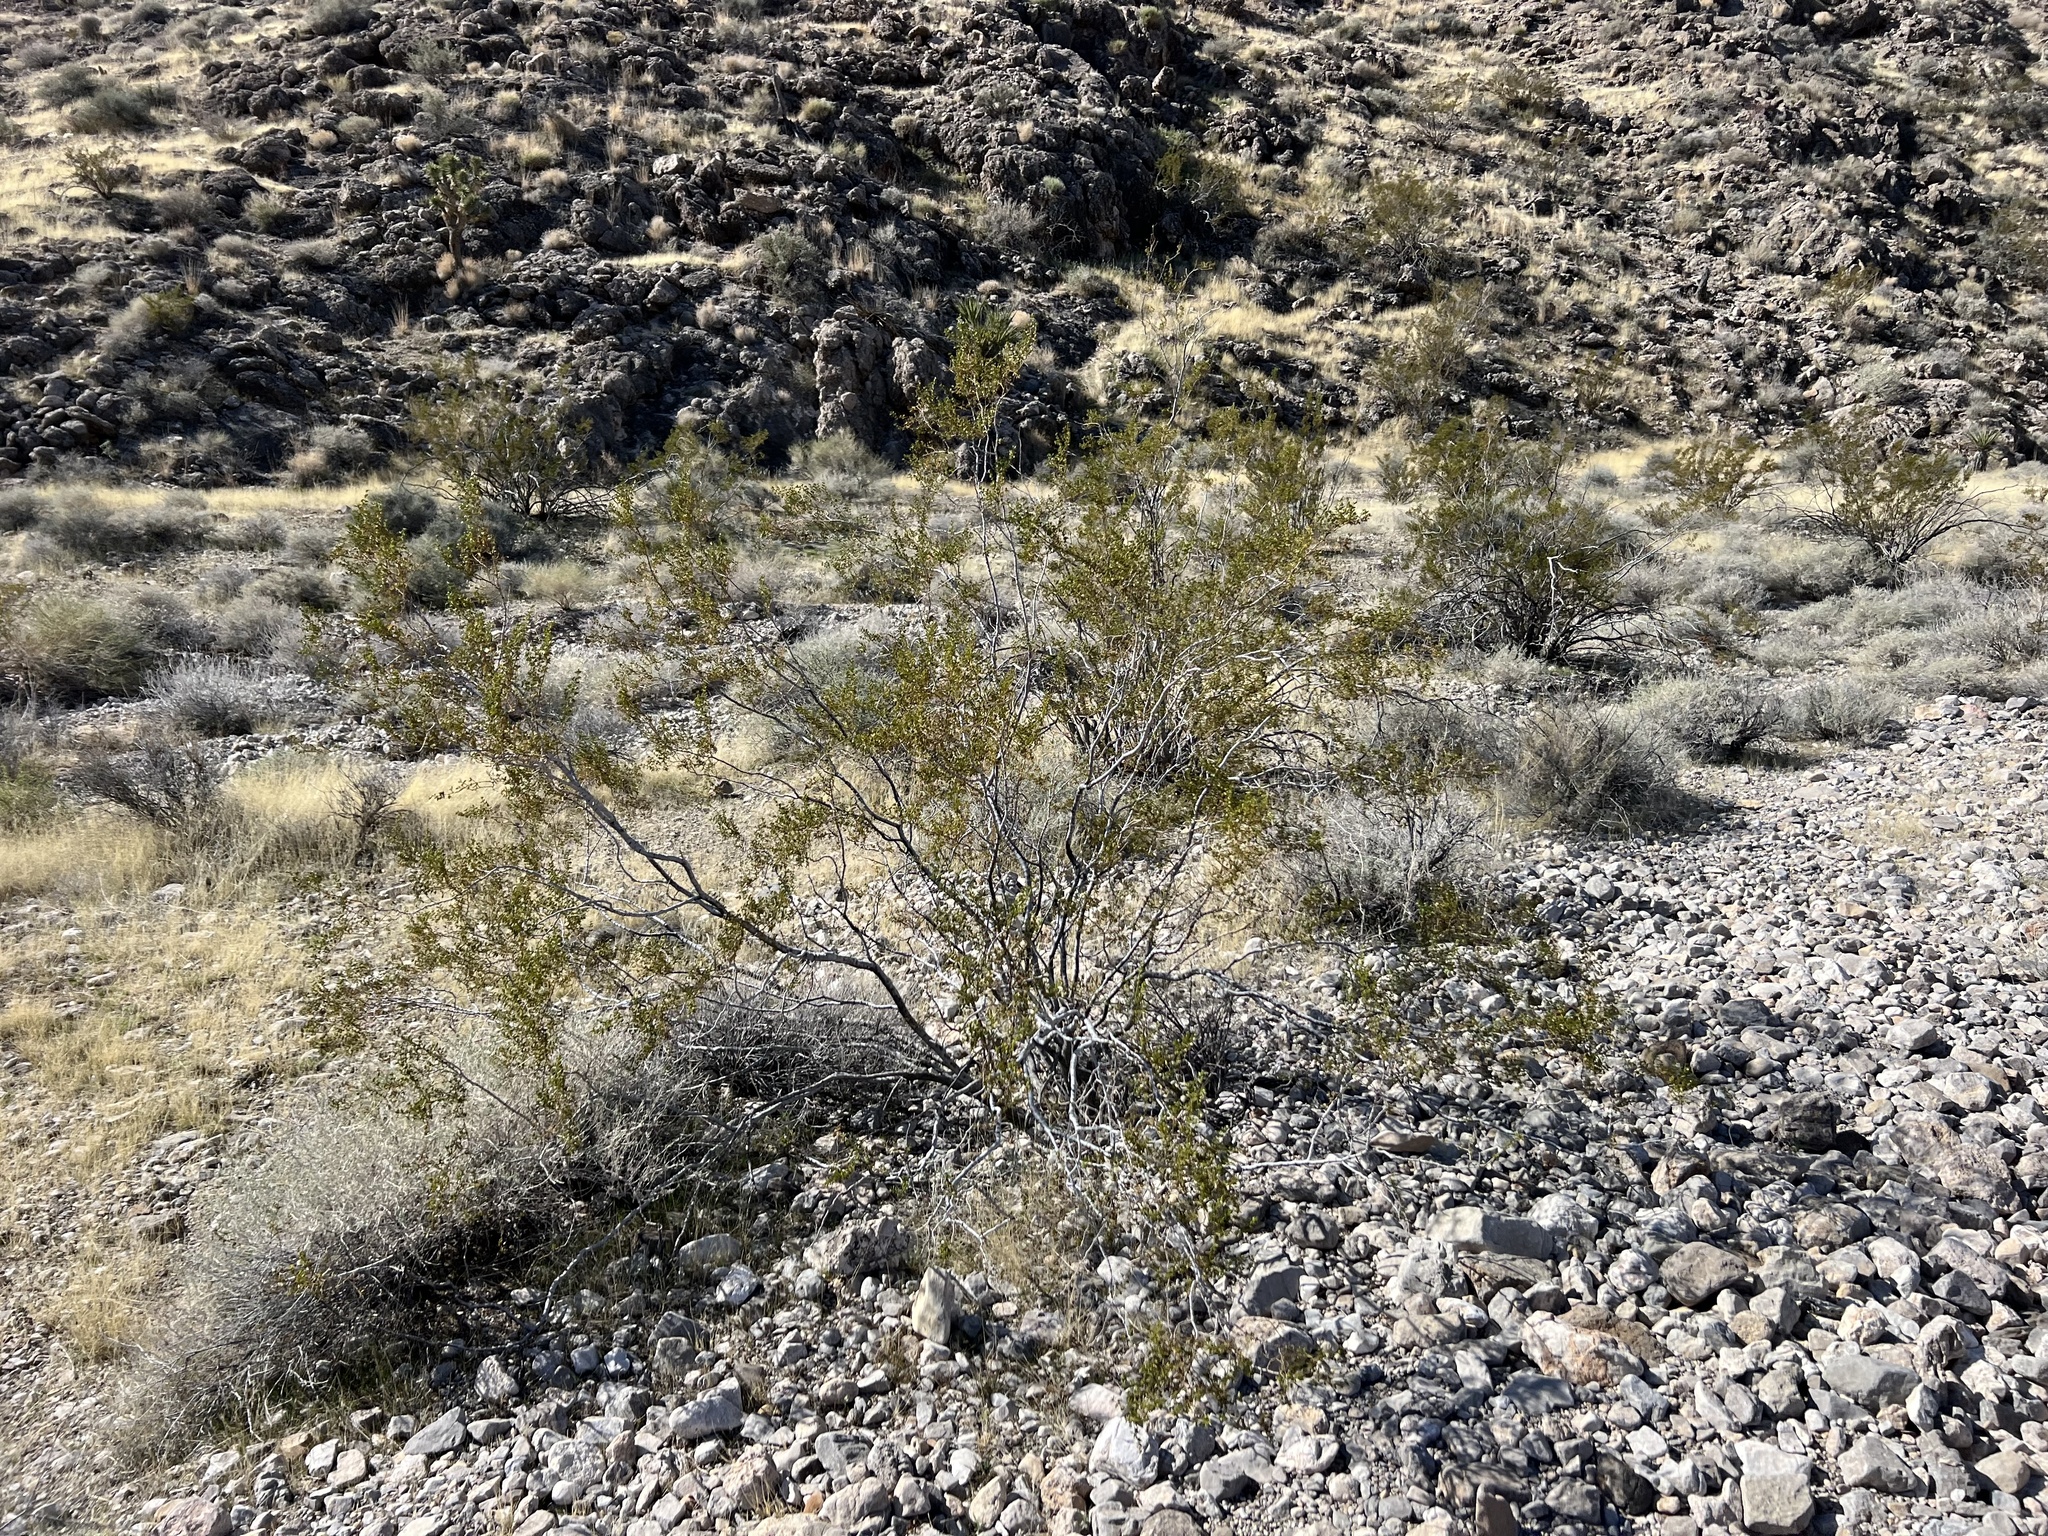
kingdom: Plantae
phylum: Tracheophyta
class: Magnoliopsida
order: Zygophyllales
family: Zygophyllaceae
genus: Larrea
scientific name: Larrea tridentata
